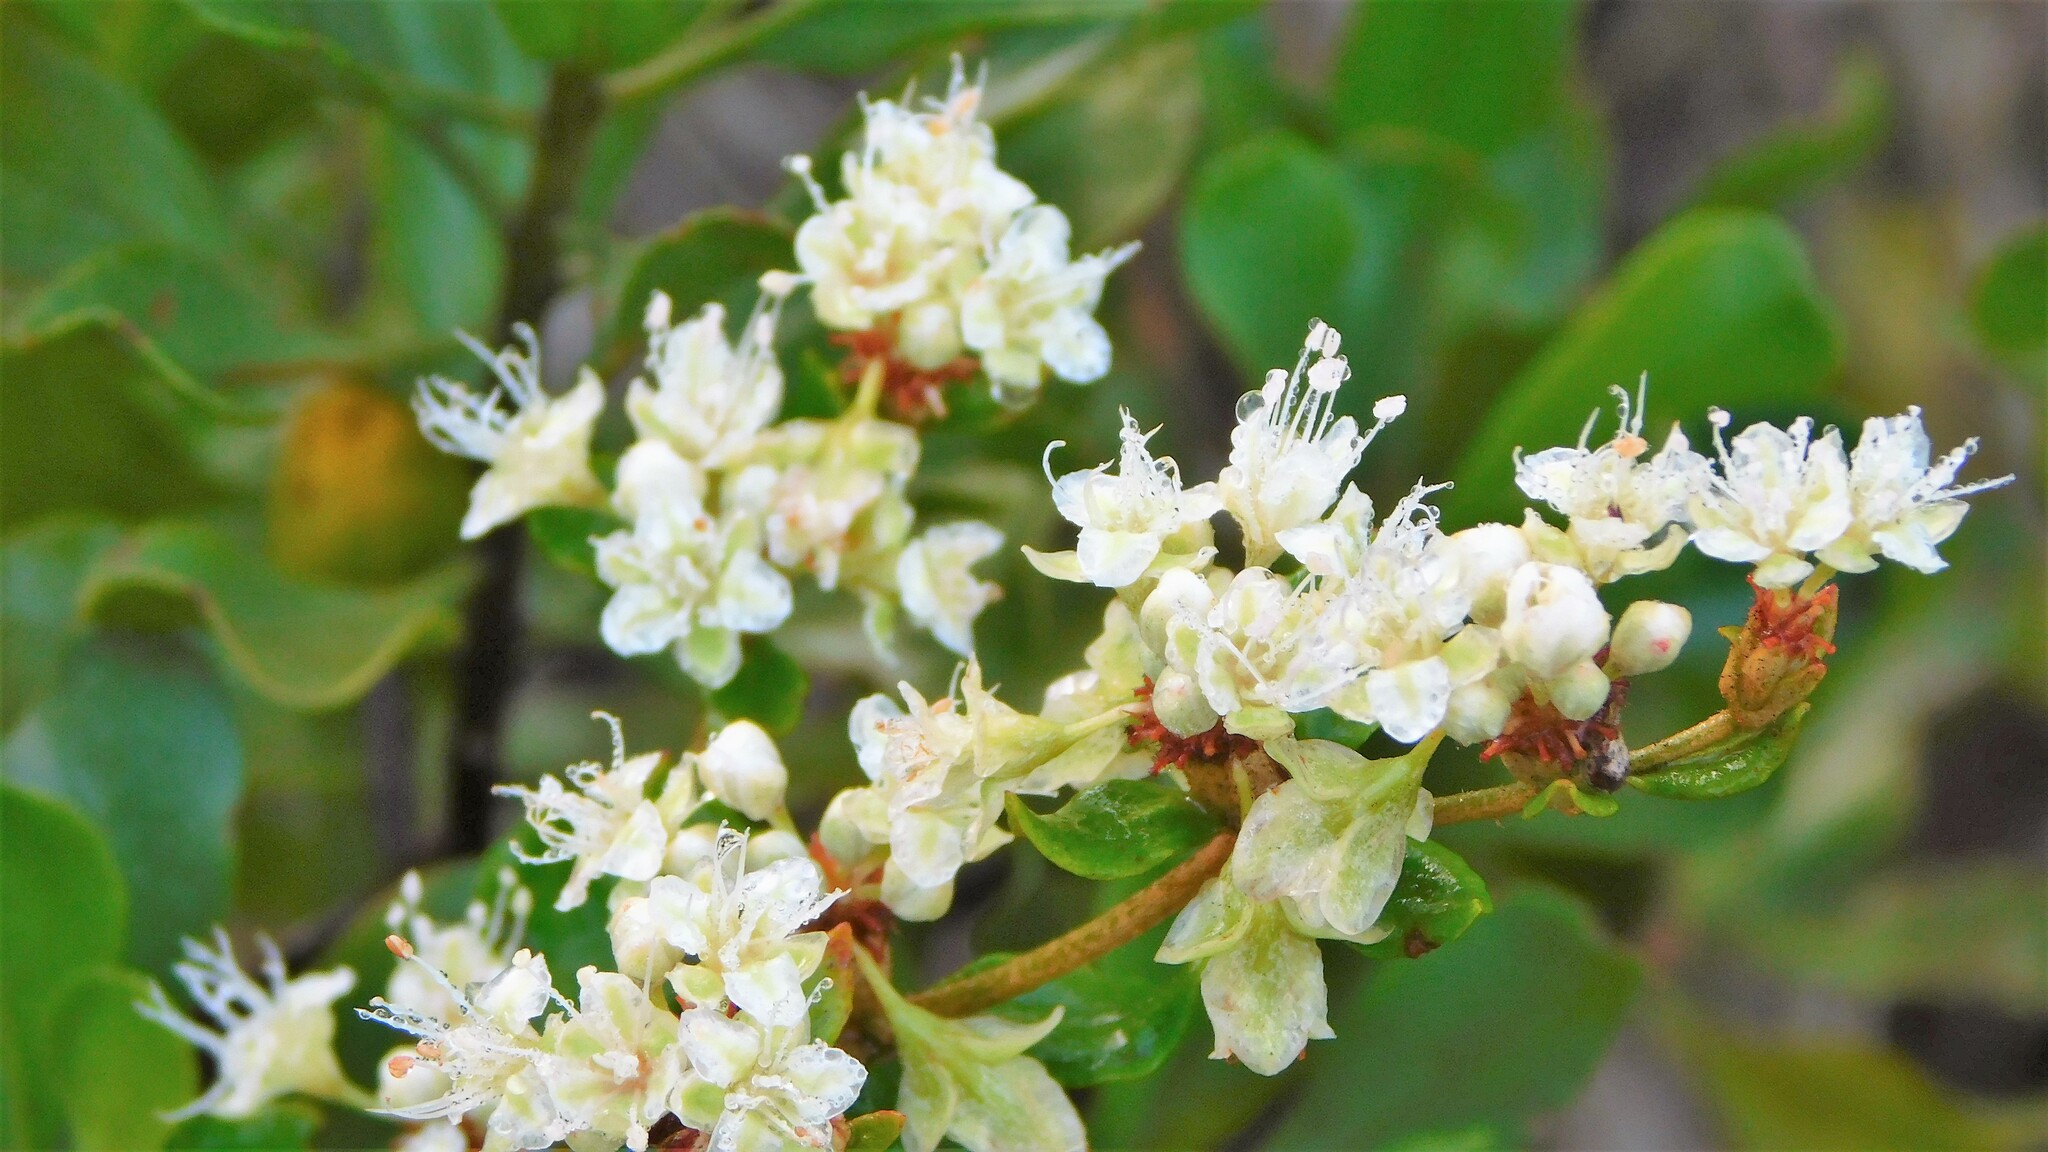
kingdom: Plantae
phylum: Tracheophyta
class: Magnoliopsida
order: Caryophyllales
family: Polygonaceae
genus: Eriogonum
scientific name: Eriogonum tomentosum
